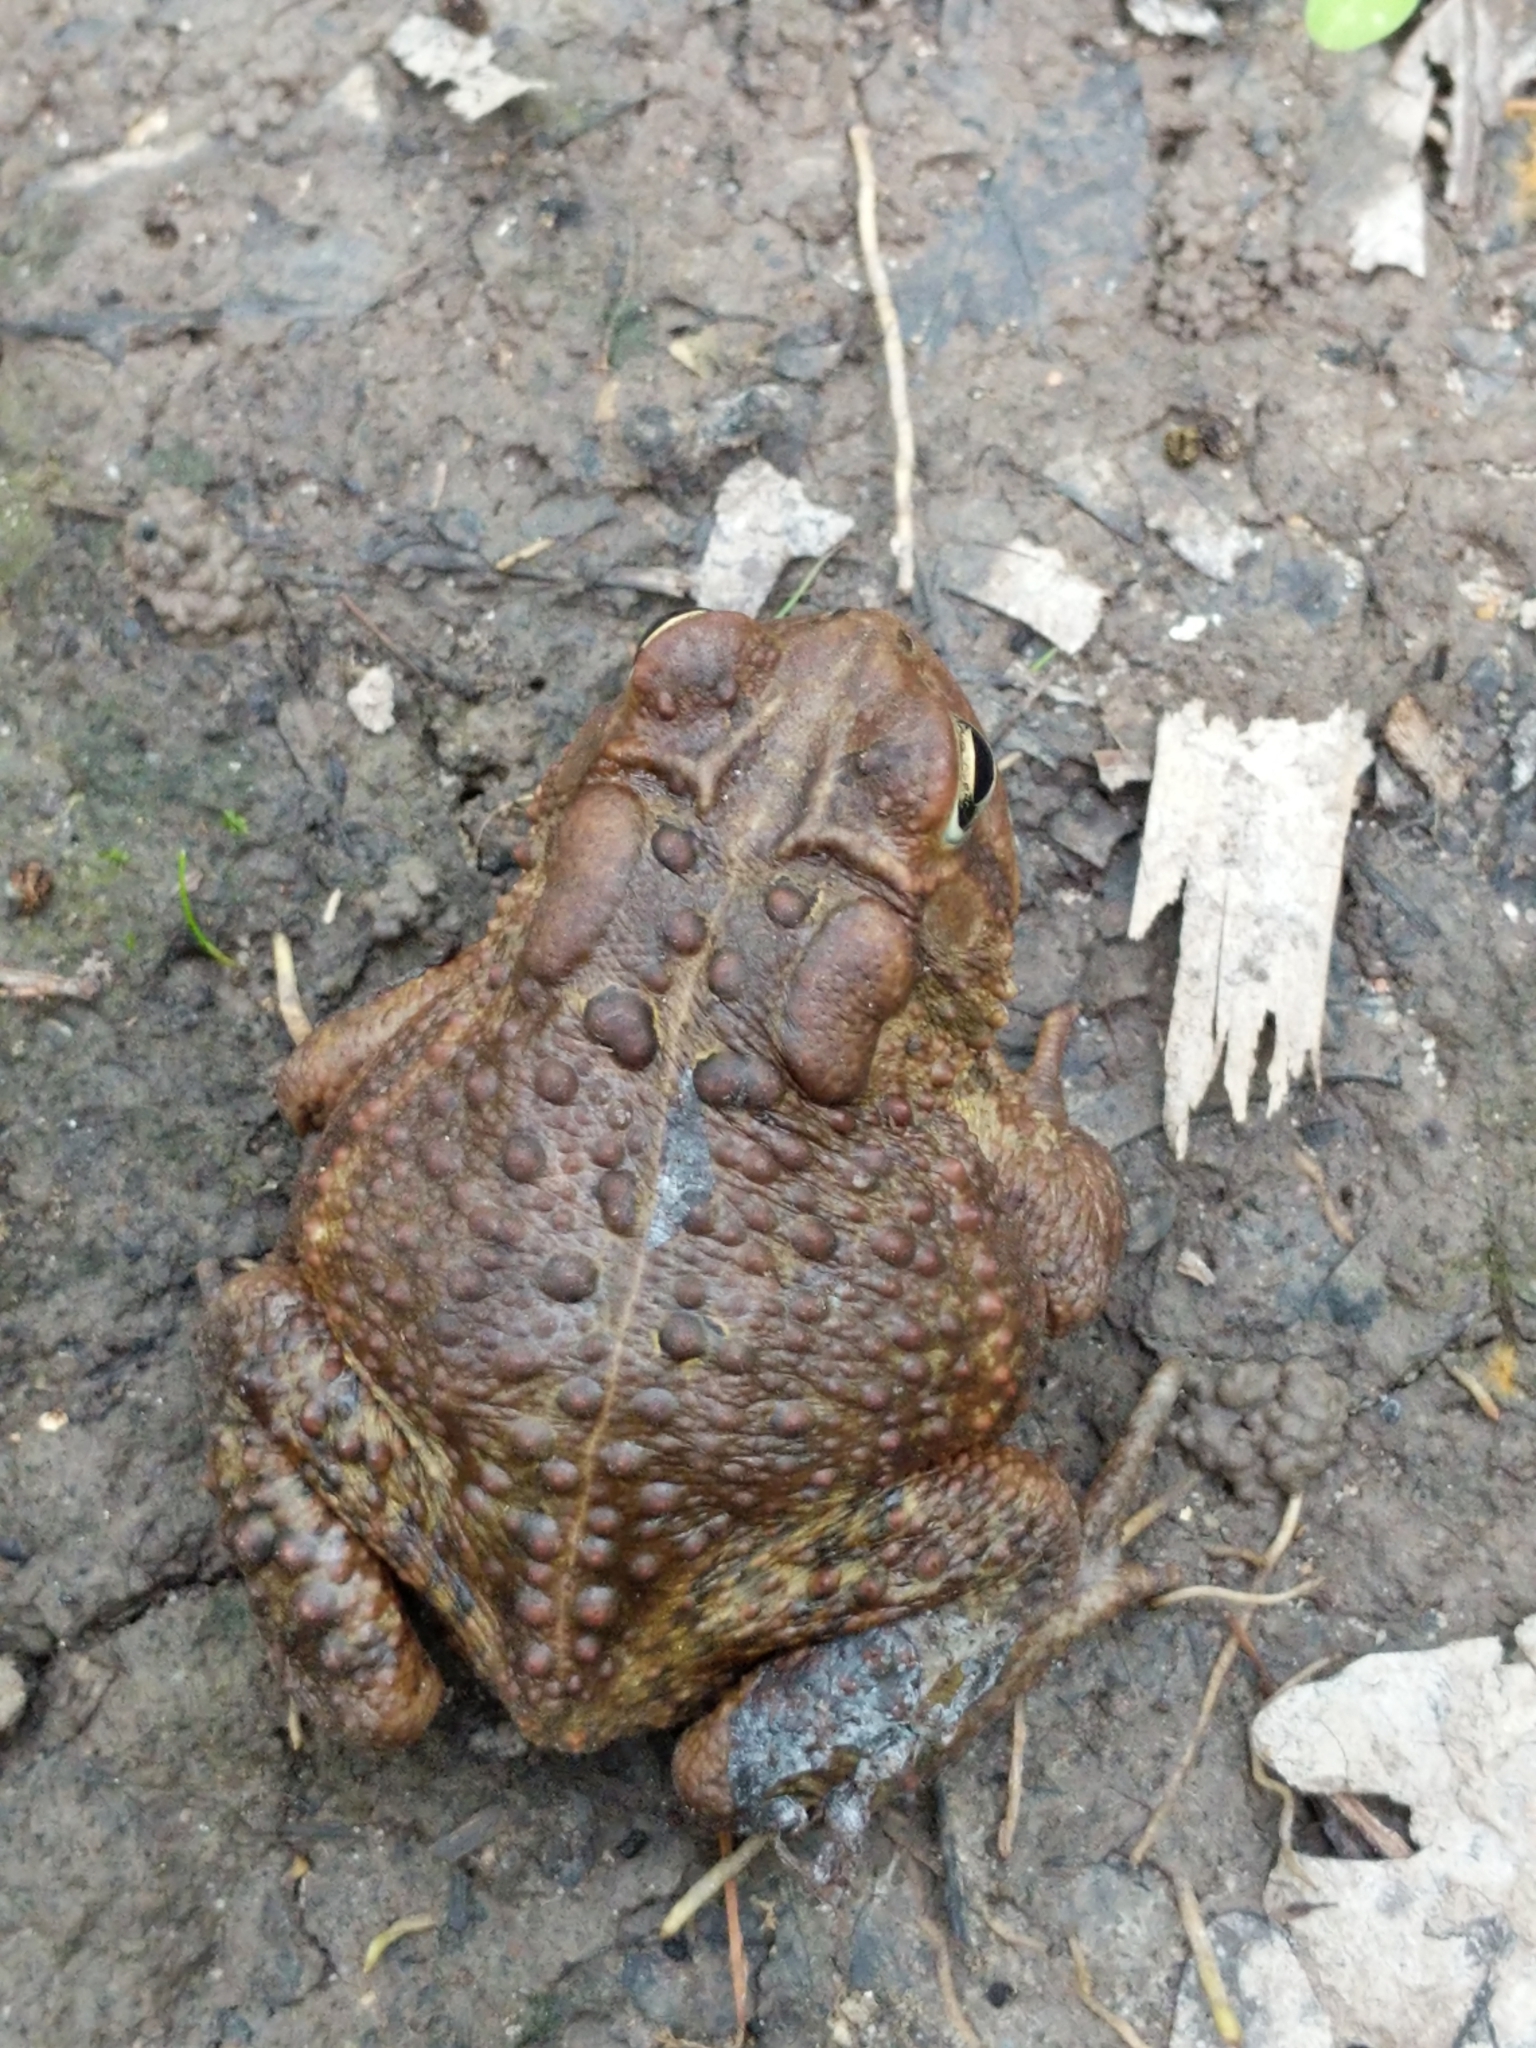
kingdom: Animalia
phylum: Chordata
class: Amphibia
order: Anura
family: Bufonidae
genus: Anaxyrus
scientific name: Anaxyrus americanus
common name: American toad
